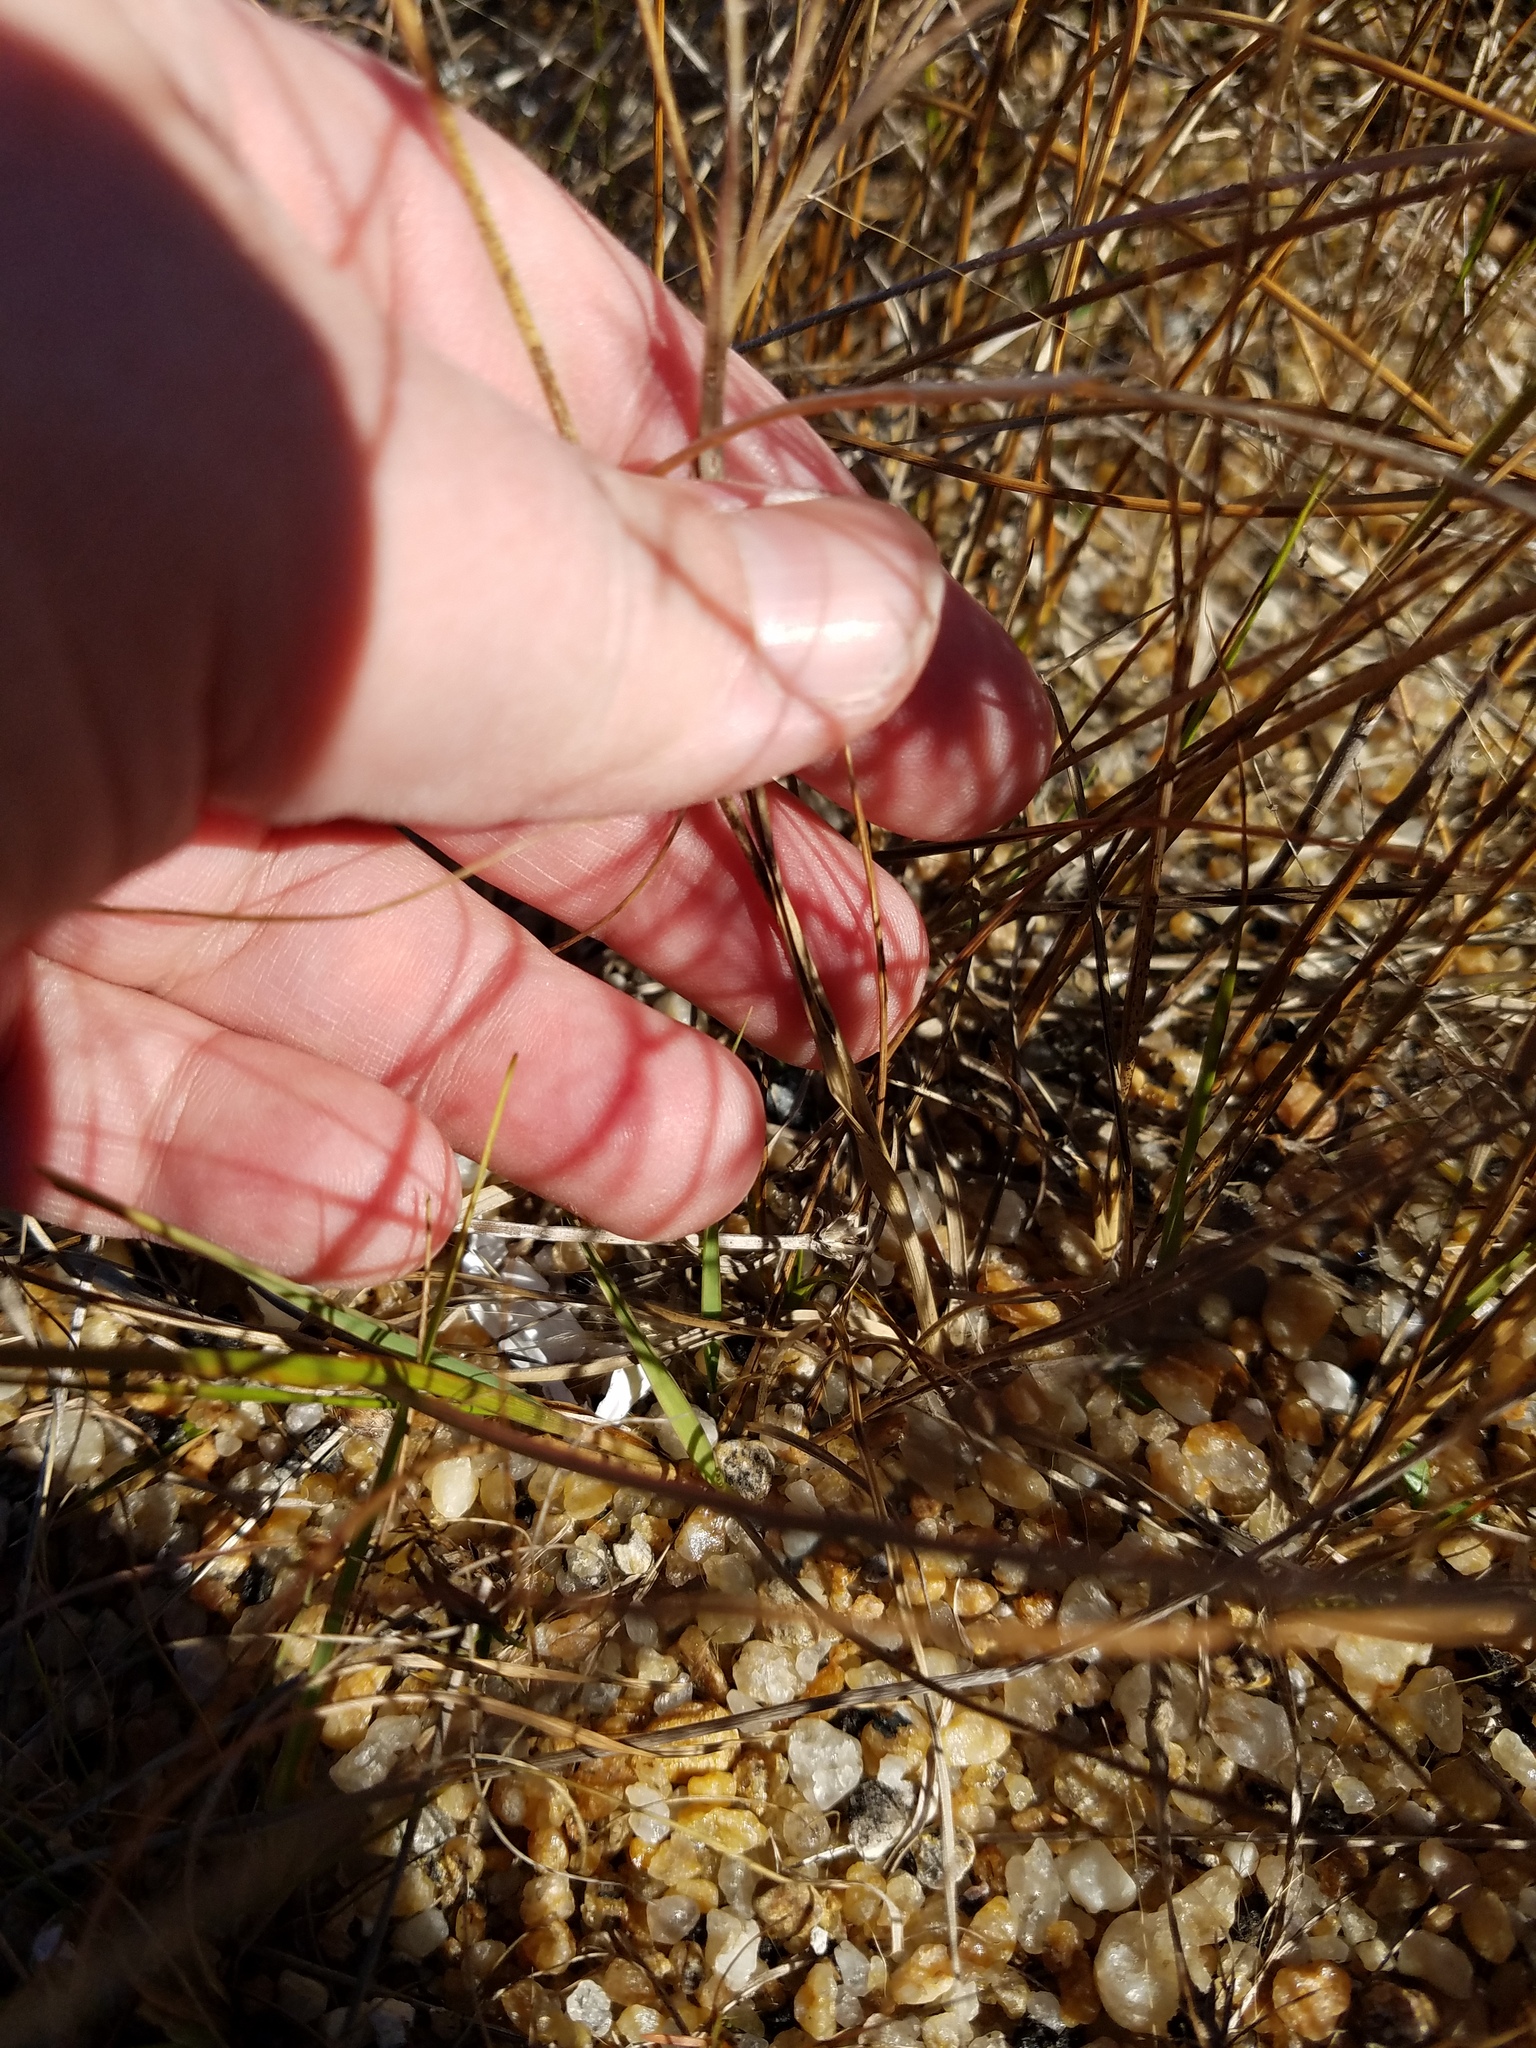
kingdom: Plantae
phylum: Tracheophyta
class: Liliopsida
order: Poales
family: Cyperaceae
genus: Rhynchospora
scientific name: Rhynchospora colorata
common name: Star sedge
